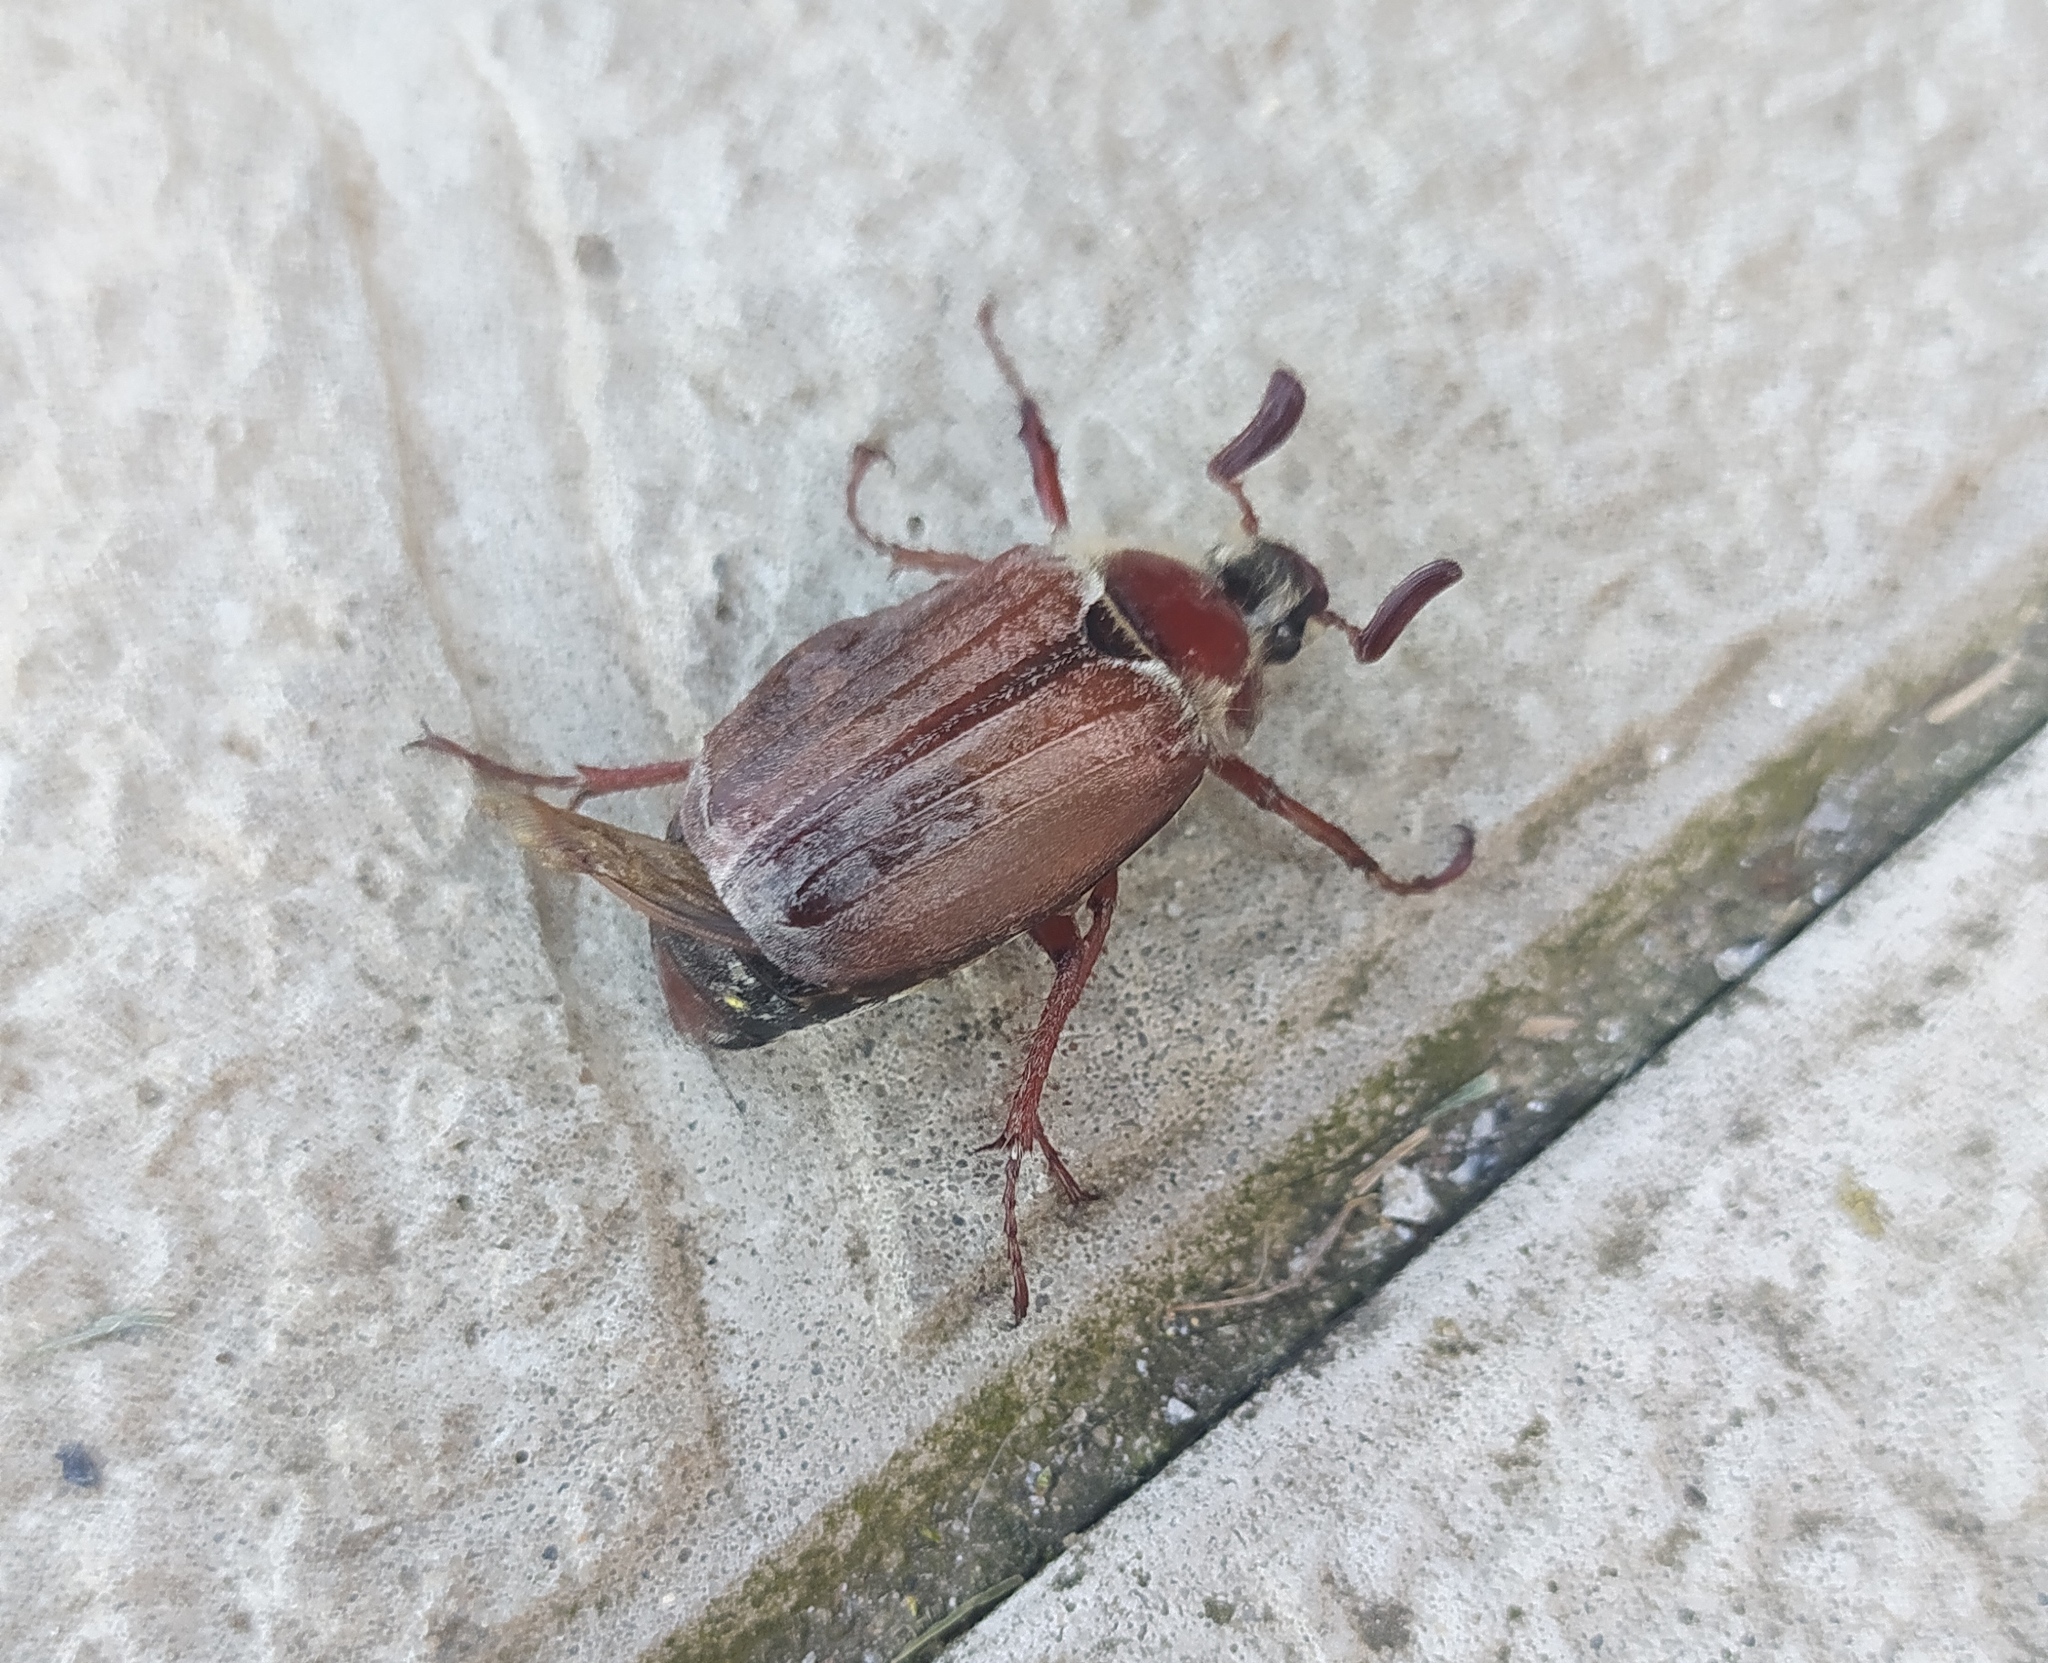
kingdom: Animalia
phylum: Arthropoda
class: Insecta
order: Coleoptera
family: Scarabaeidae
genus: Melolontha
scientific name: Melolontha hippocastani
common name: Chestnut cockchafer
